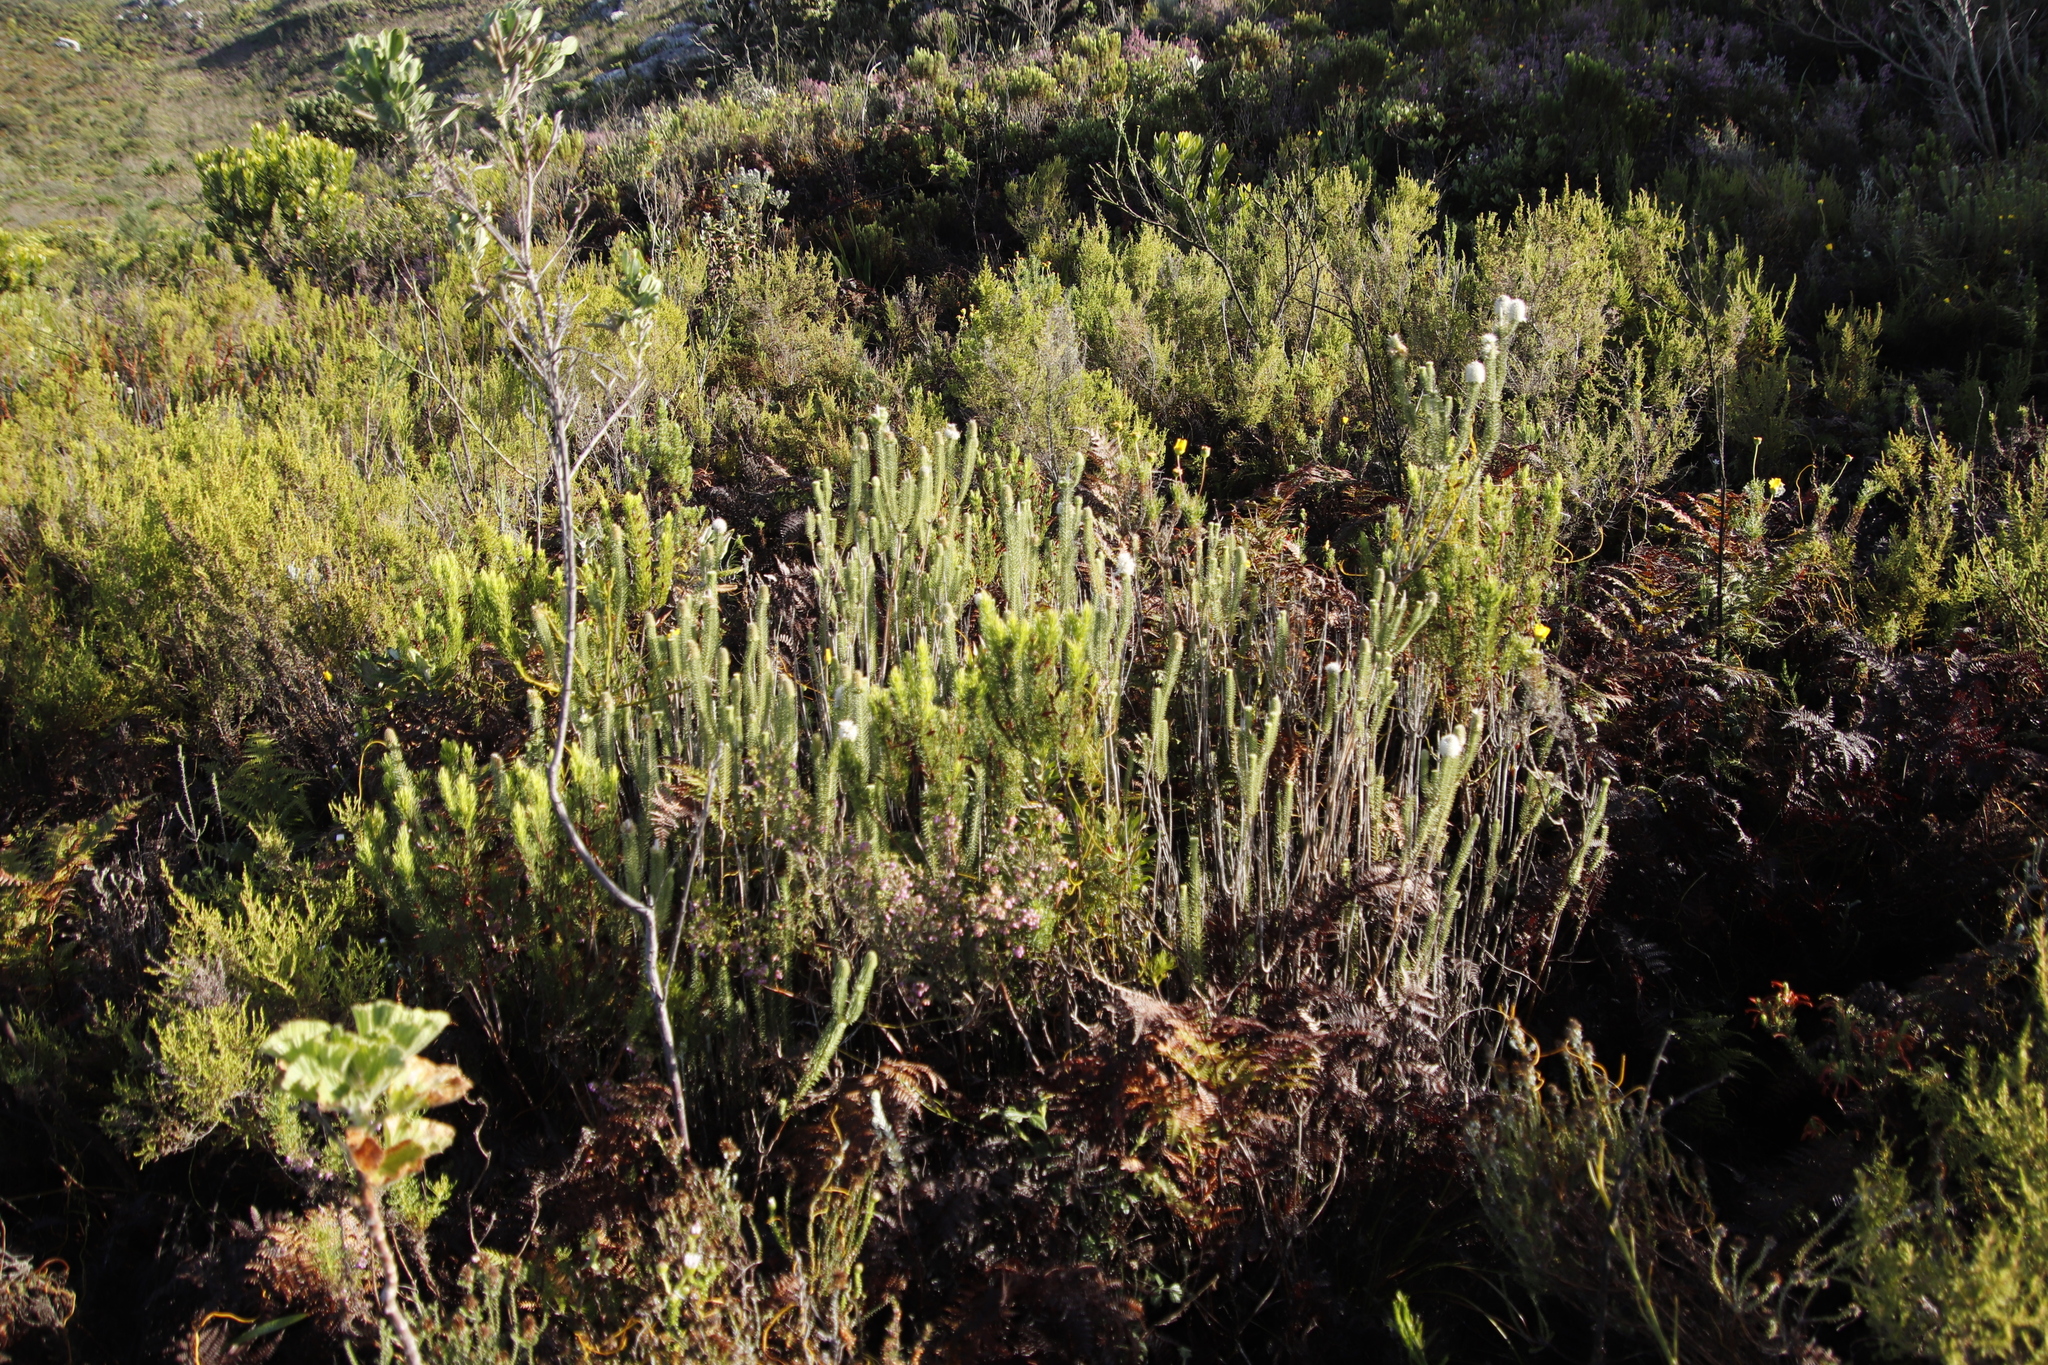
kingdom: Plantae
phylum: Tracheophyta
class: Magnoliopsida
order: Lamiales
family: Stilbaceae
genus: Stilbe
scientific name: Stilbe vestita
